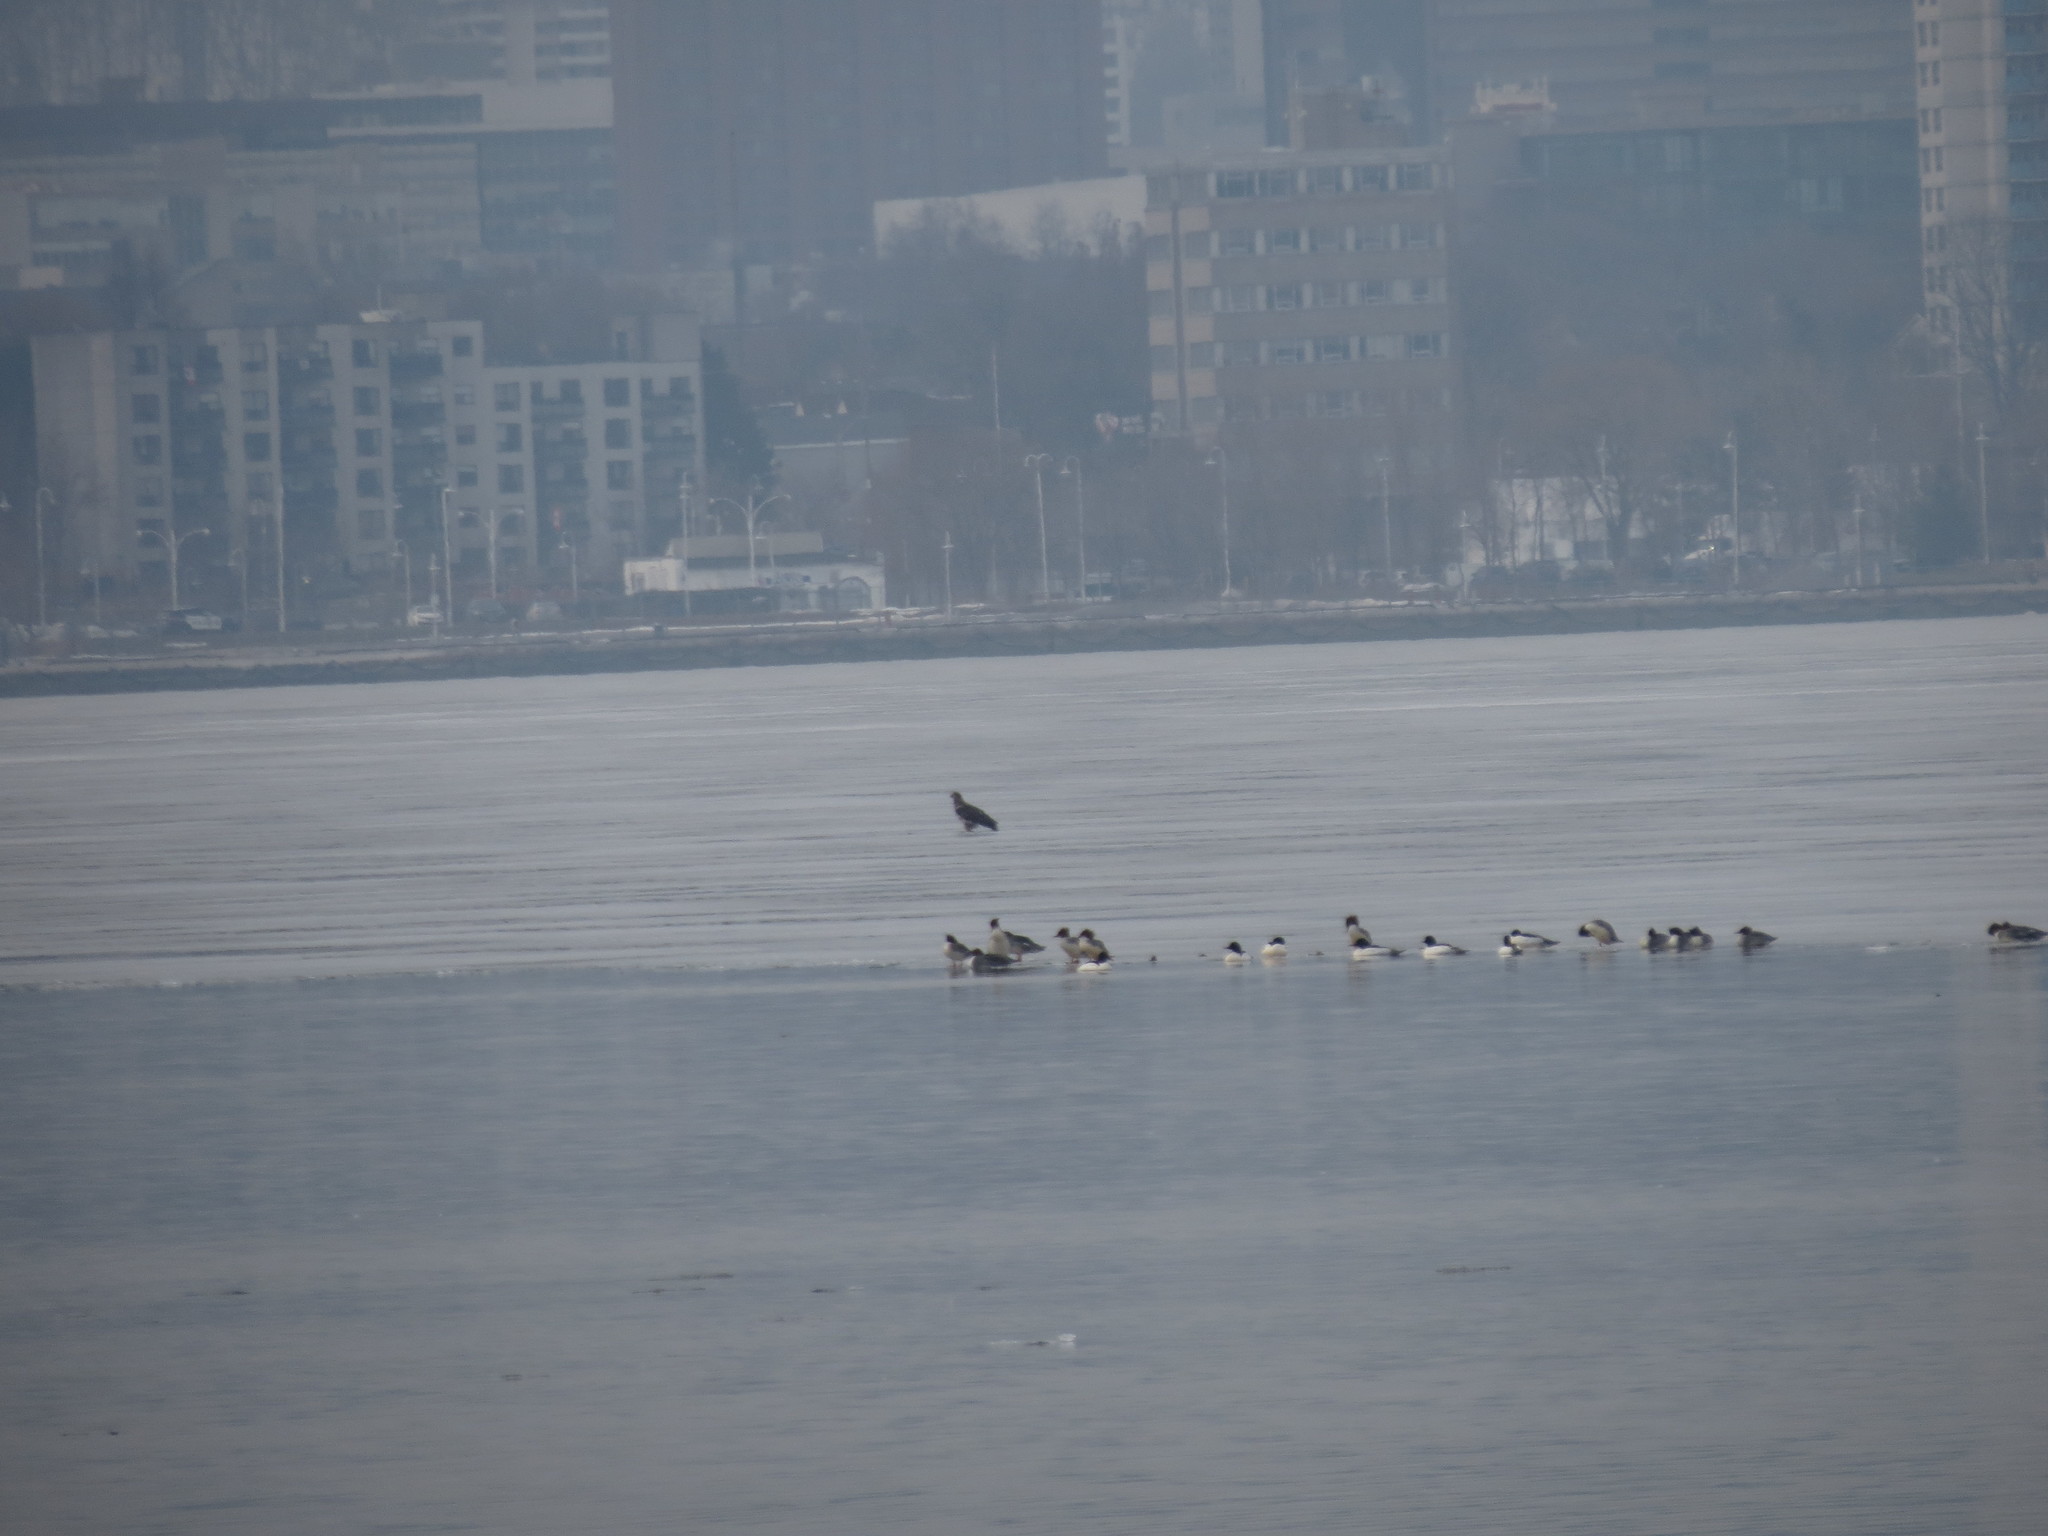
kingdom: Animalia
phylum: Chordata
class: Aves
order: Anseriformes
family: Anatidae
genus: Mergus
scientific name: Mergus merganser
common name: Common merganser
